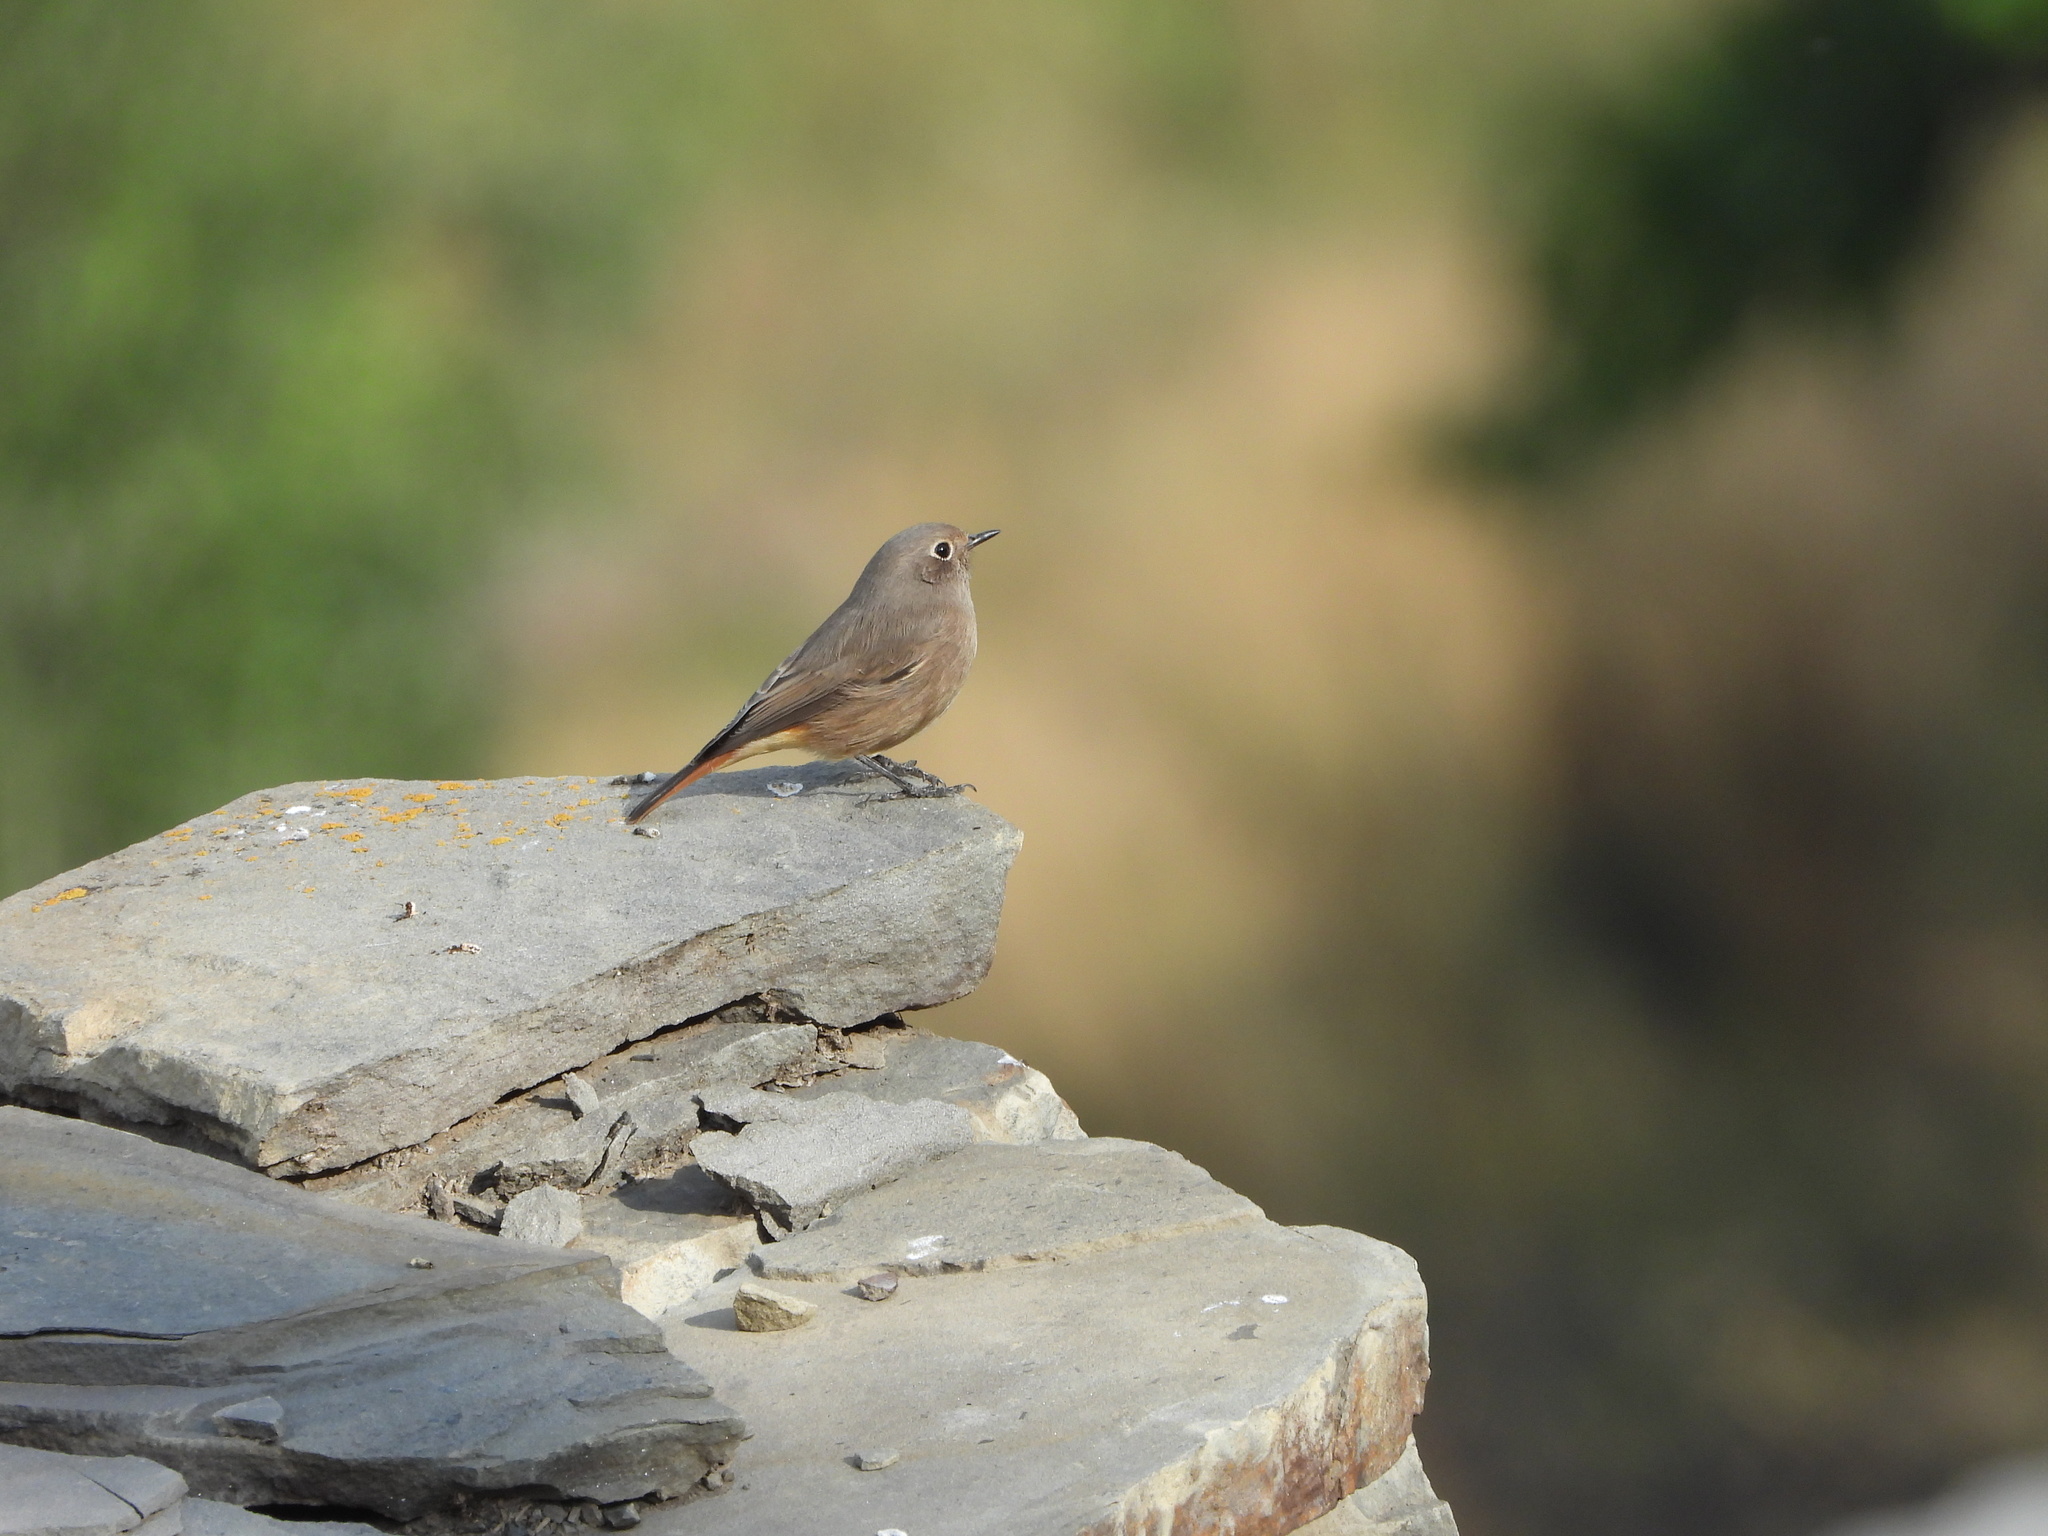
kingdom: Animalia
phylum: Chordata
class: Aves
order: Passeriformes
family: Muscicapidae
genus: Phoenicurus
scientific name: Phoenicurus ochruros
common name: Black redstart
